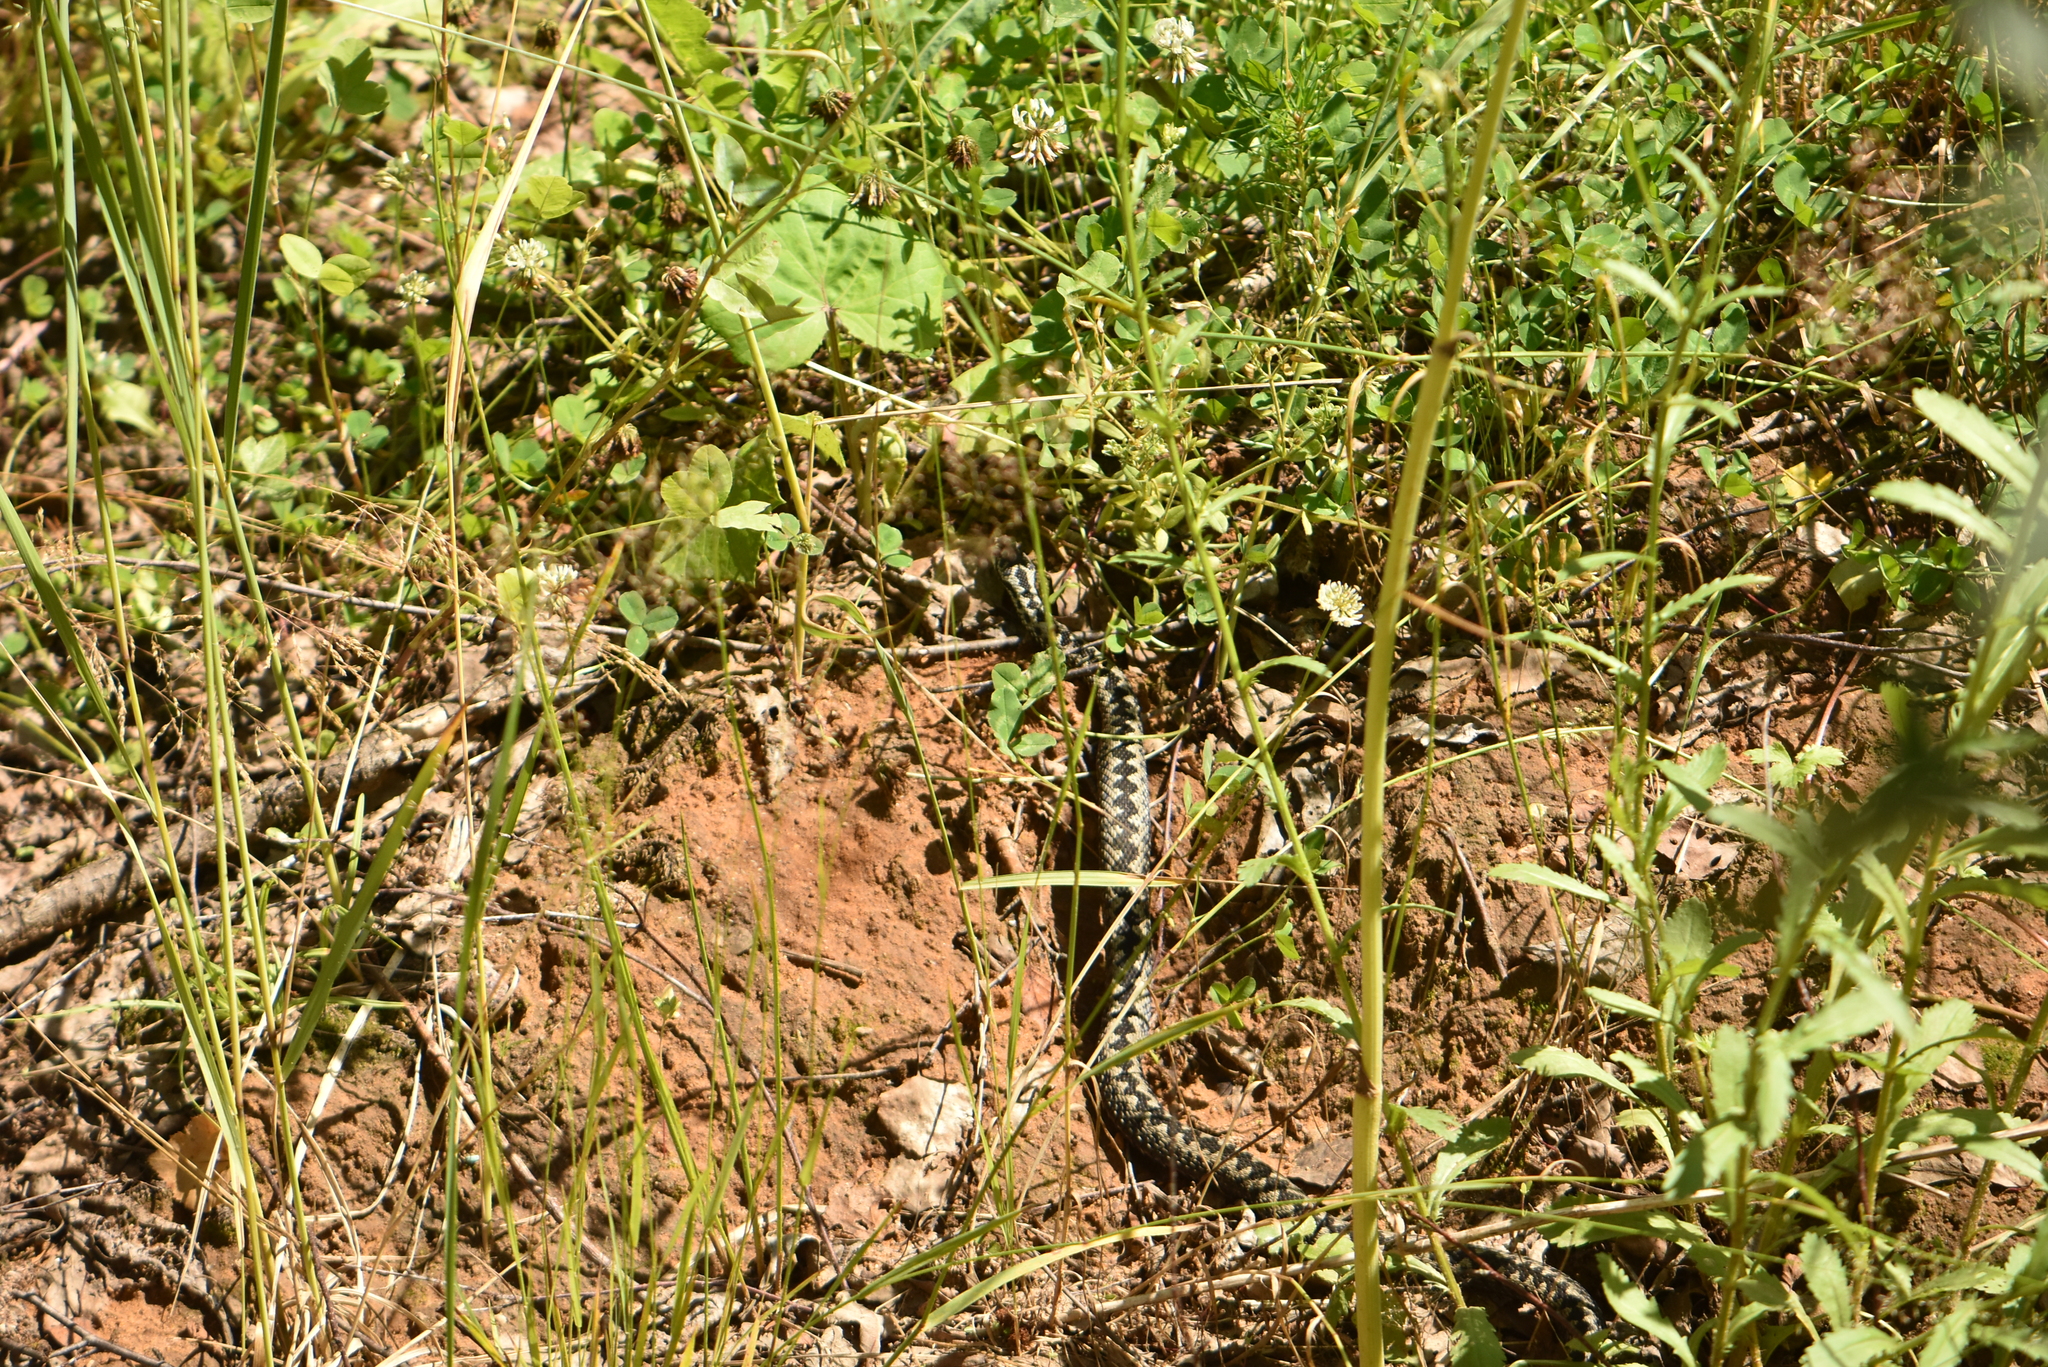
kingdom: Animalia
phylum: Chordata
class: Squamata
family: Viperidae
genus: Vipera
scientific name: Vipera berus
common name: Adder
